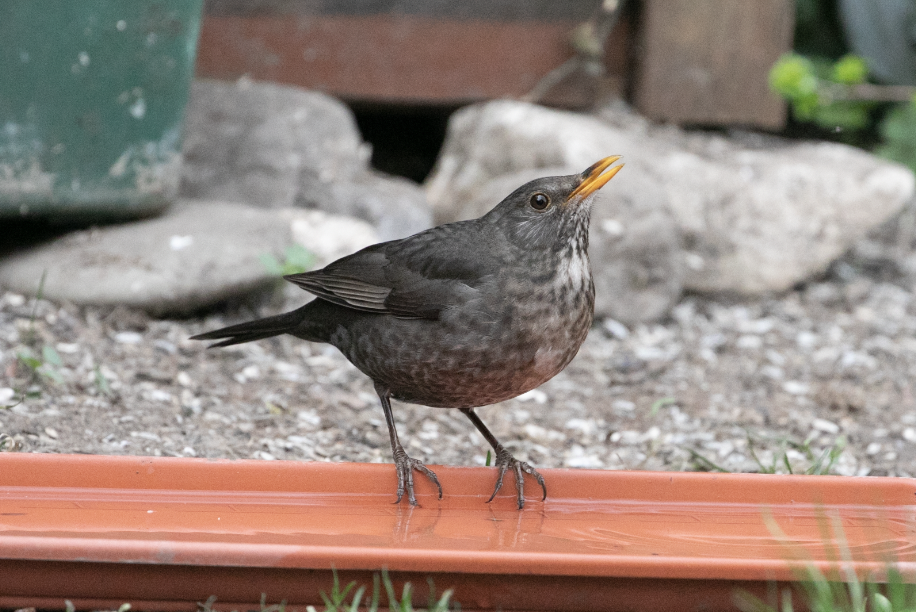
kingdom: Animalia
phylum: Chordata
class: Aves
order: Passeriformes
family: Turdidae
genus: Turdus
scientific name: Turdus merula
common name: Common blackbird
